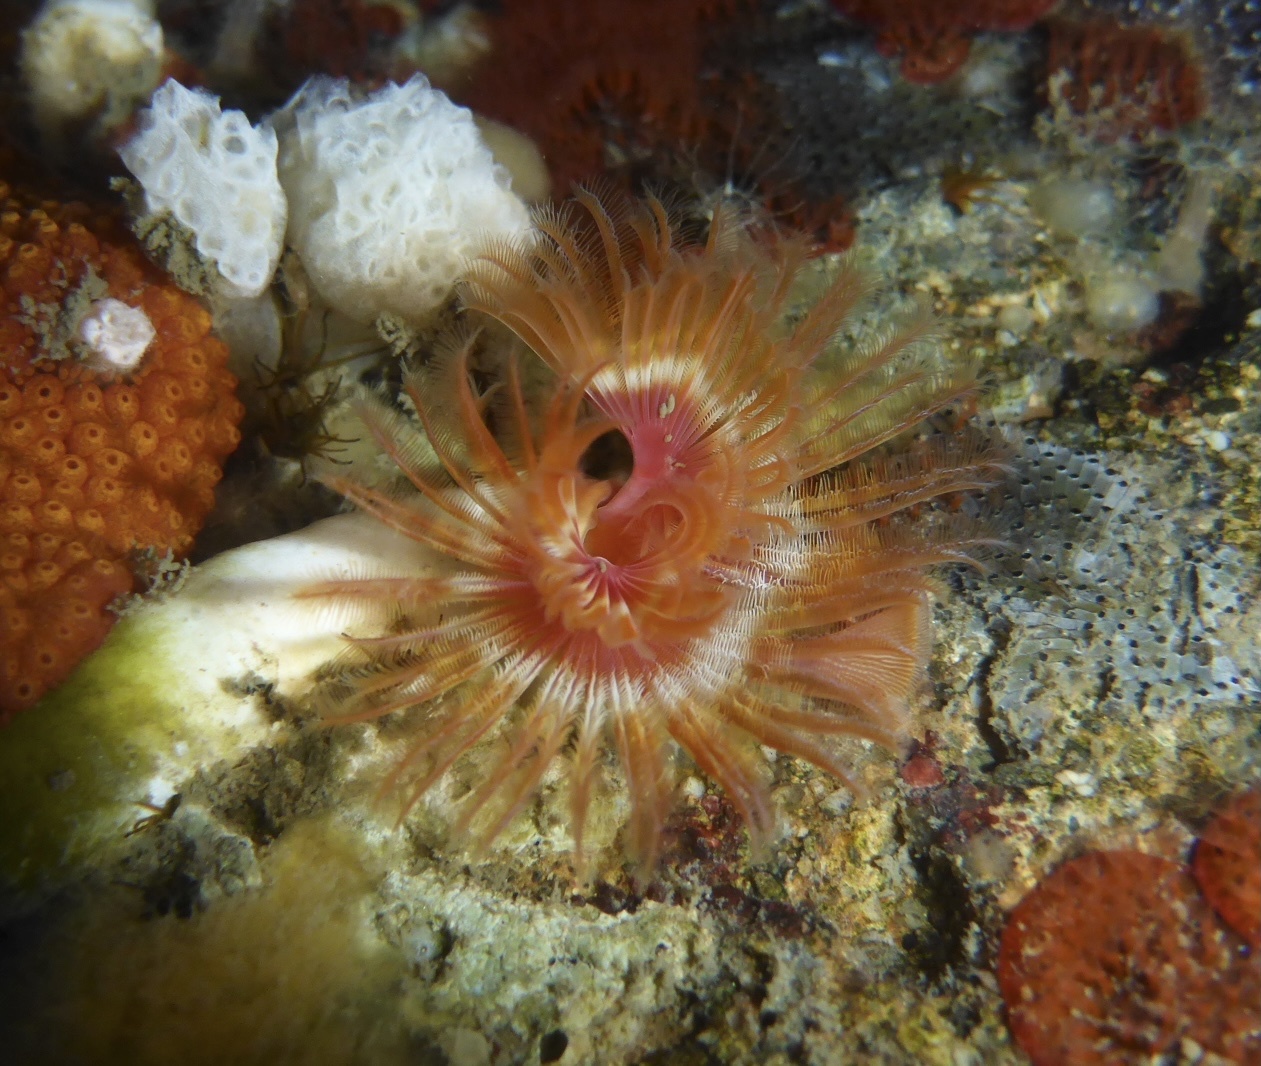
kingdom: Animalia
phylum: Annelida
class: Polychaeta
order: Sabellida
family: Serpulidae
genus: Serpula
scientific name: Serpula columbiana
